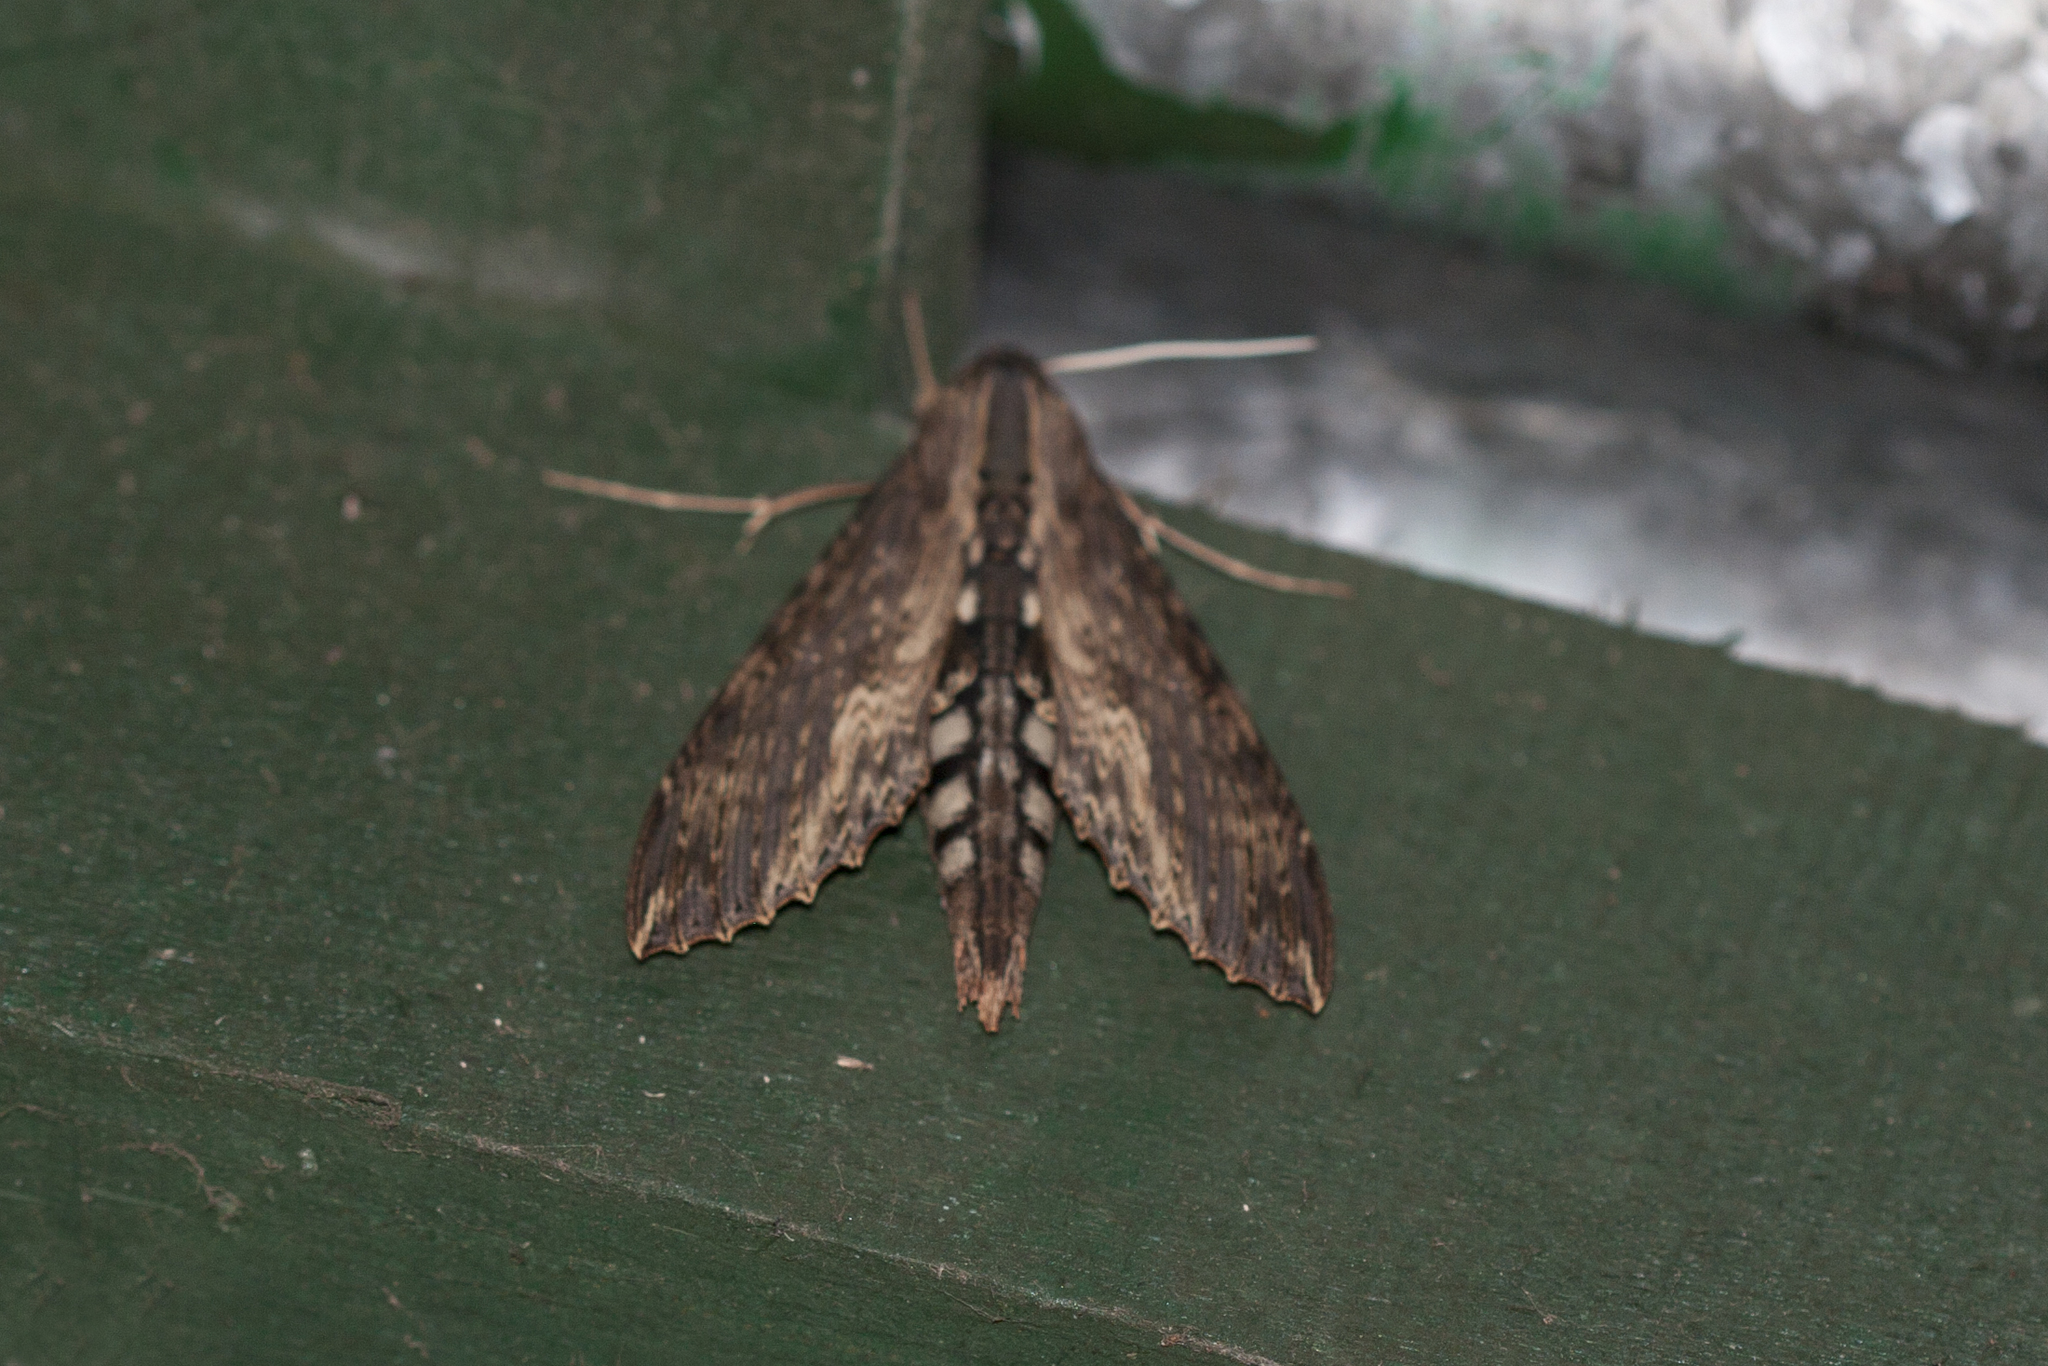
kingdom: Animalia
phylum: Arthropoda
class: Insecta
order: Lepidoptera
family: Sphingidae
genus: Erinnyis
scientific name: Erinnyis alope
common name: Alope sphinx
